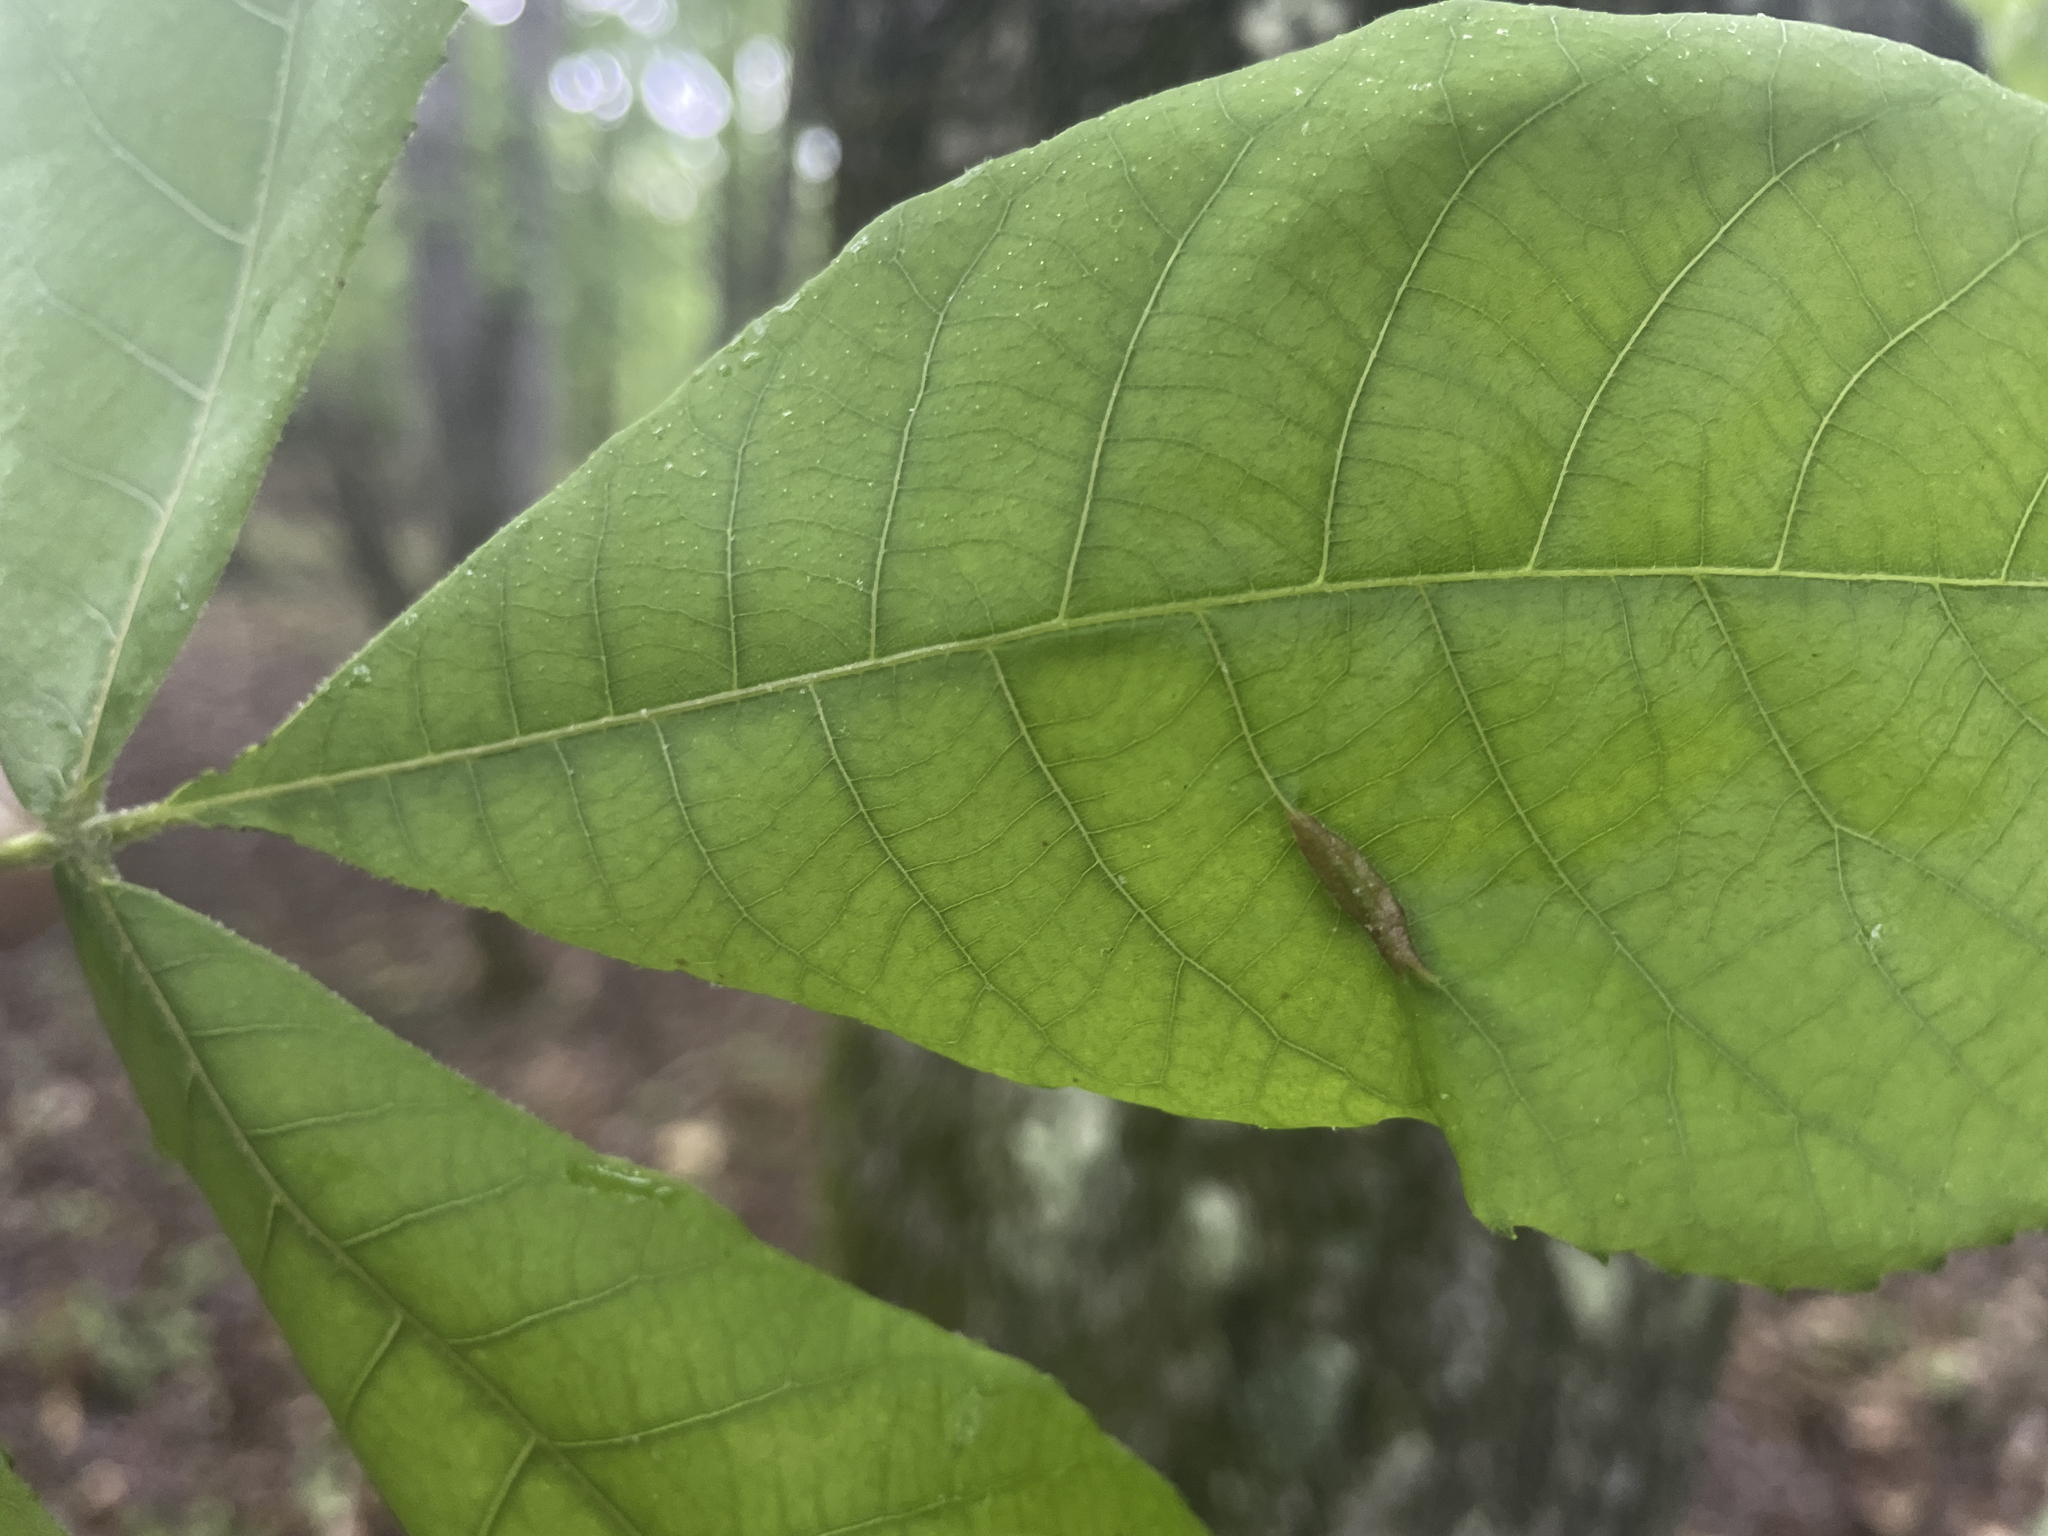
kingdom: Animalia
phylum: Arthropoda
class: Insecta
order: Hemiptera
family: Phylloxeridae
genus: Phylloxera
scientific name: Phylloxera caryaevenae
